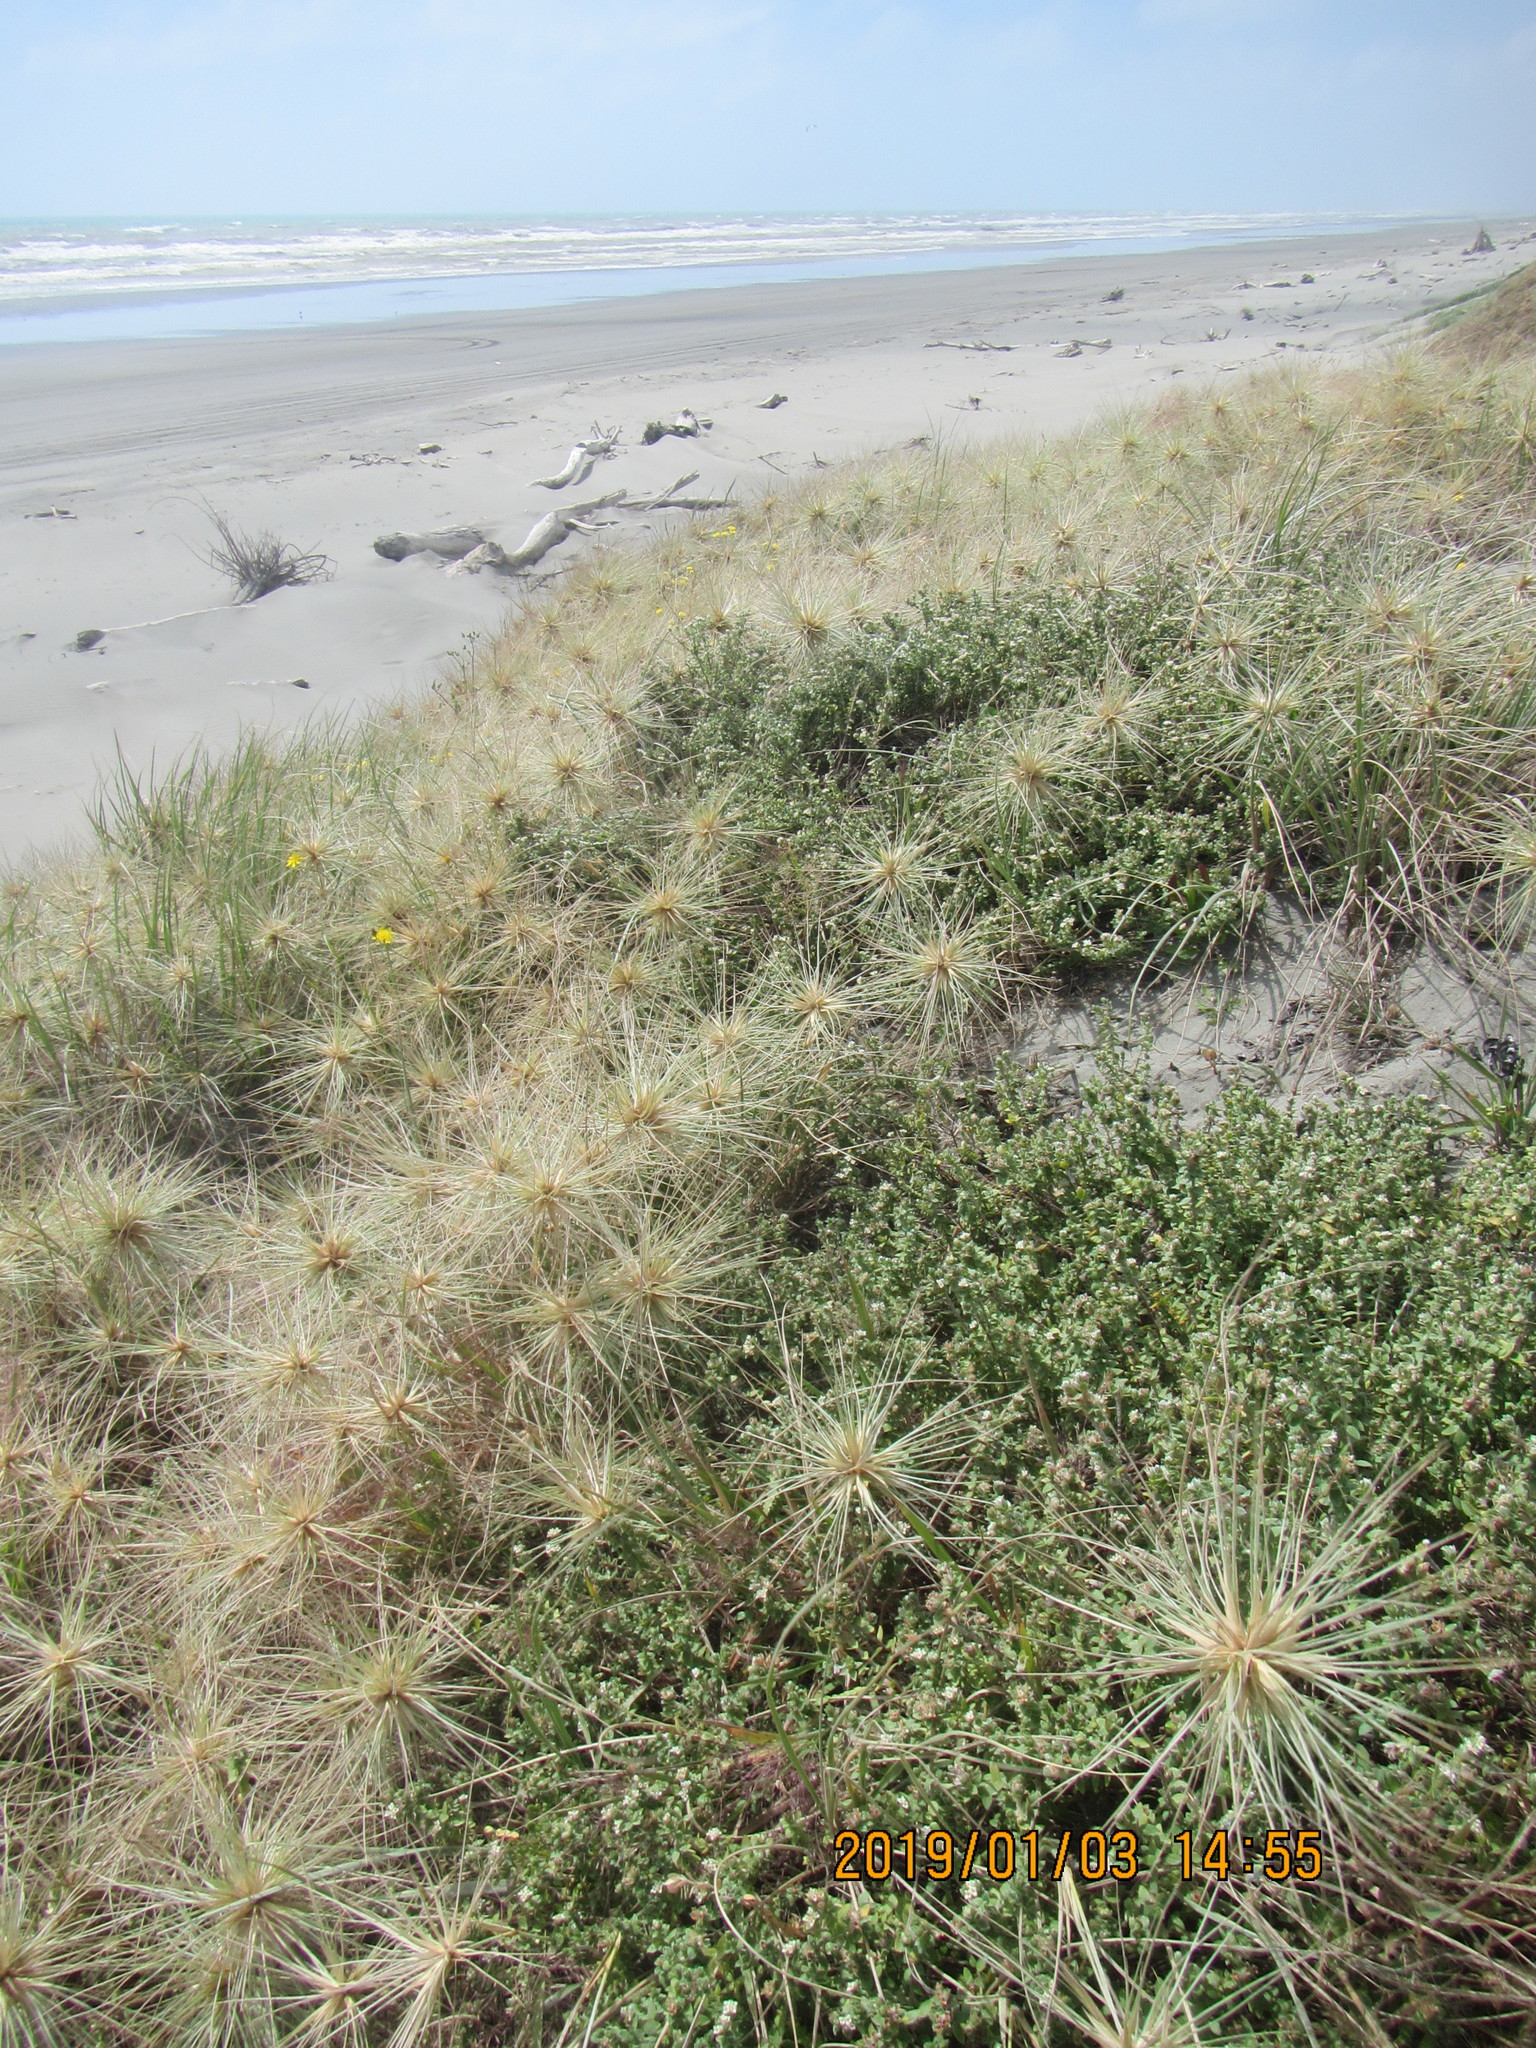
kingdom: Plantae
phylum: Tracheophyta
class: Magnoliopsida
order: Malvales
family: Thymelaeaceae
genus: Pimelea
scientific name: Pimelea villosa
